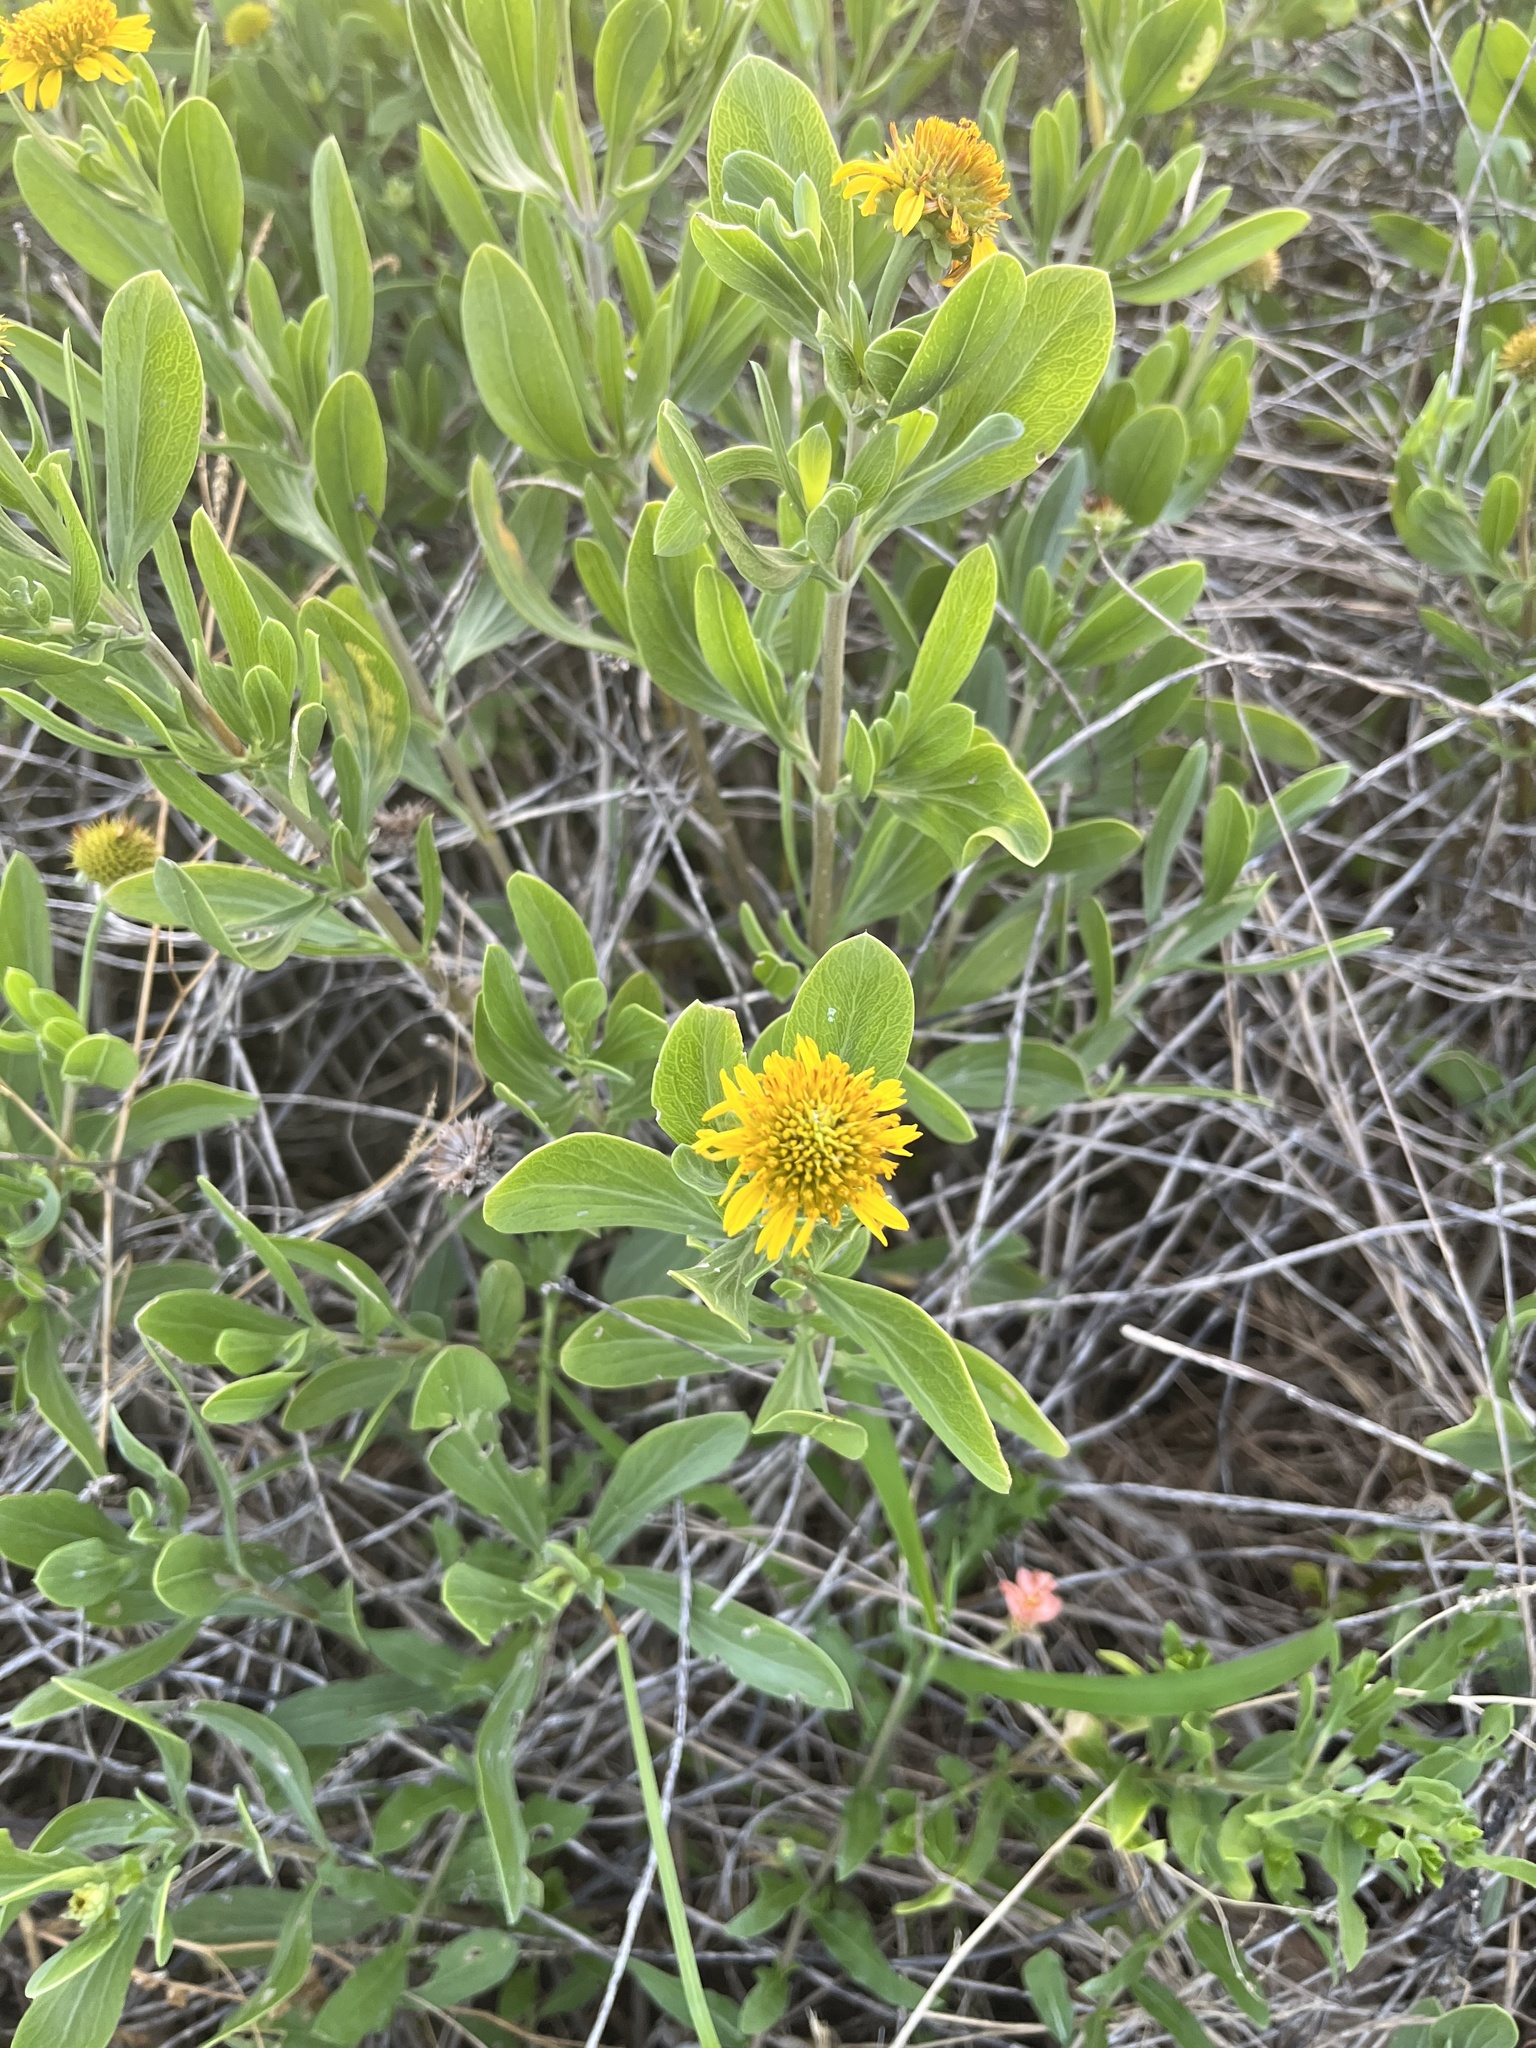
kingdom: Plantae
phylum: Tracheophyta
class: Magnoliopsida
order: Asterales
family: Asteraceae
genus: Borrichia
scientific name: Borrichia frutescens
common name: Sea oxeye
